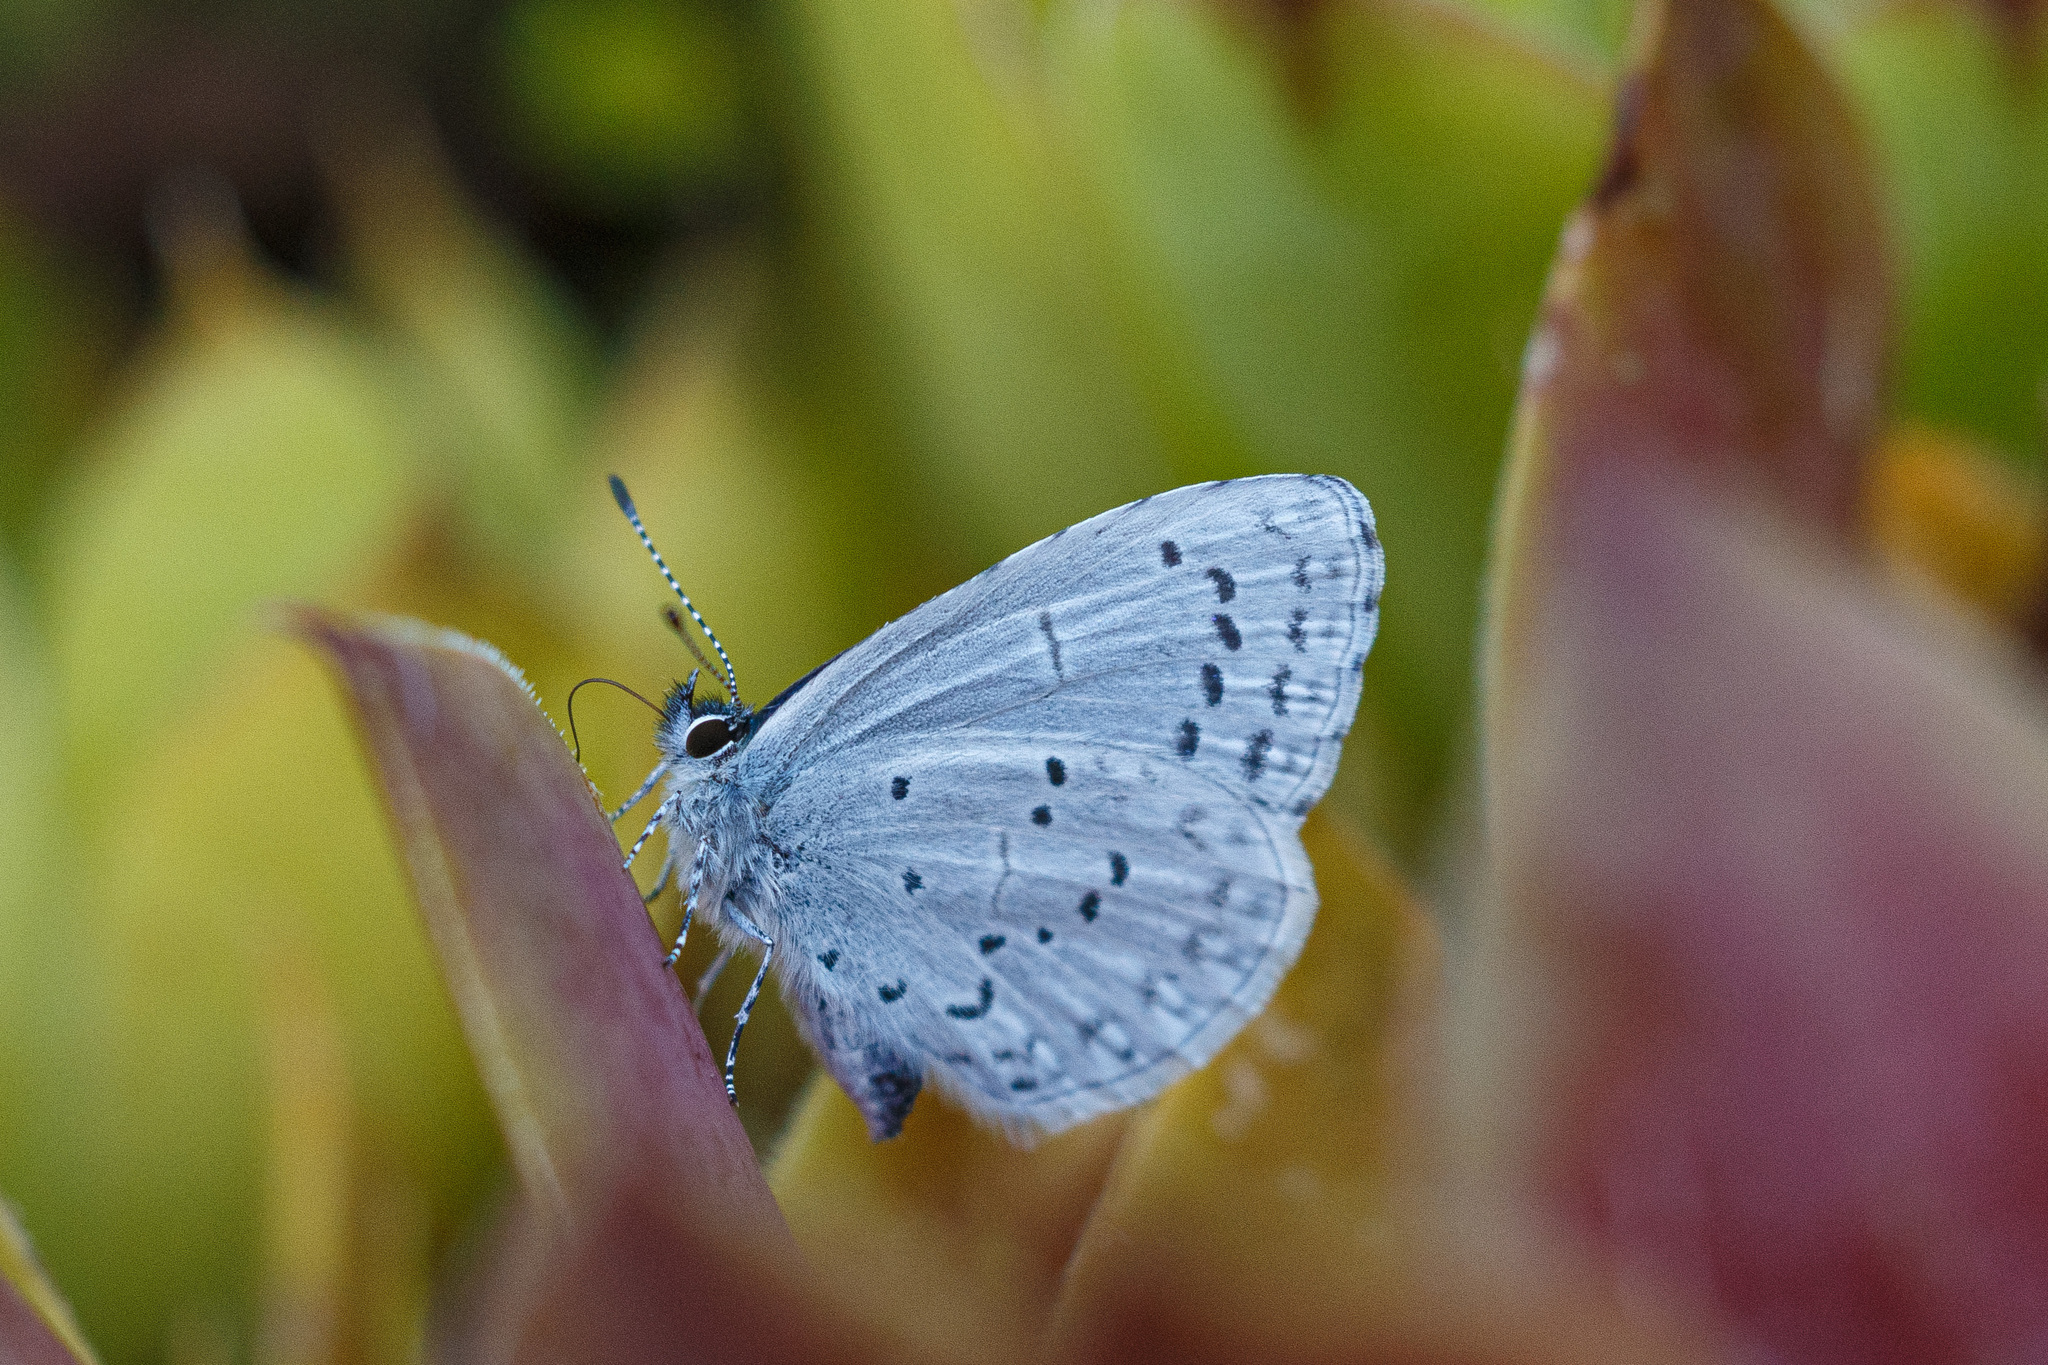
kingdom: Animalia
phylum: Arthropoda
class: Insecta
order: Lepidoptera
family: Lycaenidae
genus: Celastrina
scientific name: Celastrina ladon
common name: Spring azure
